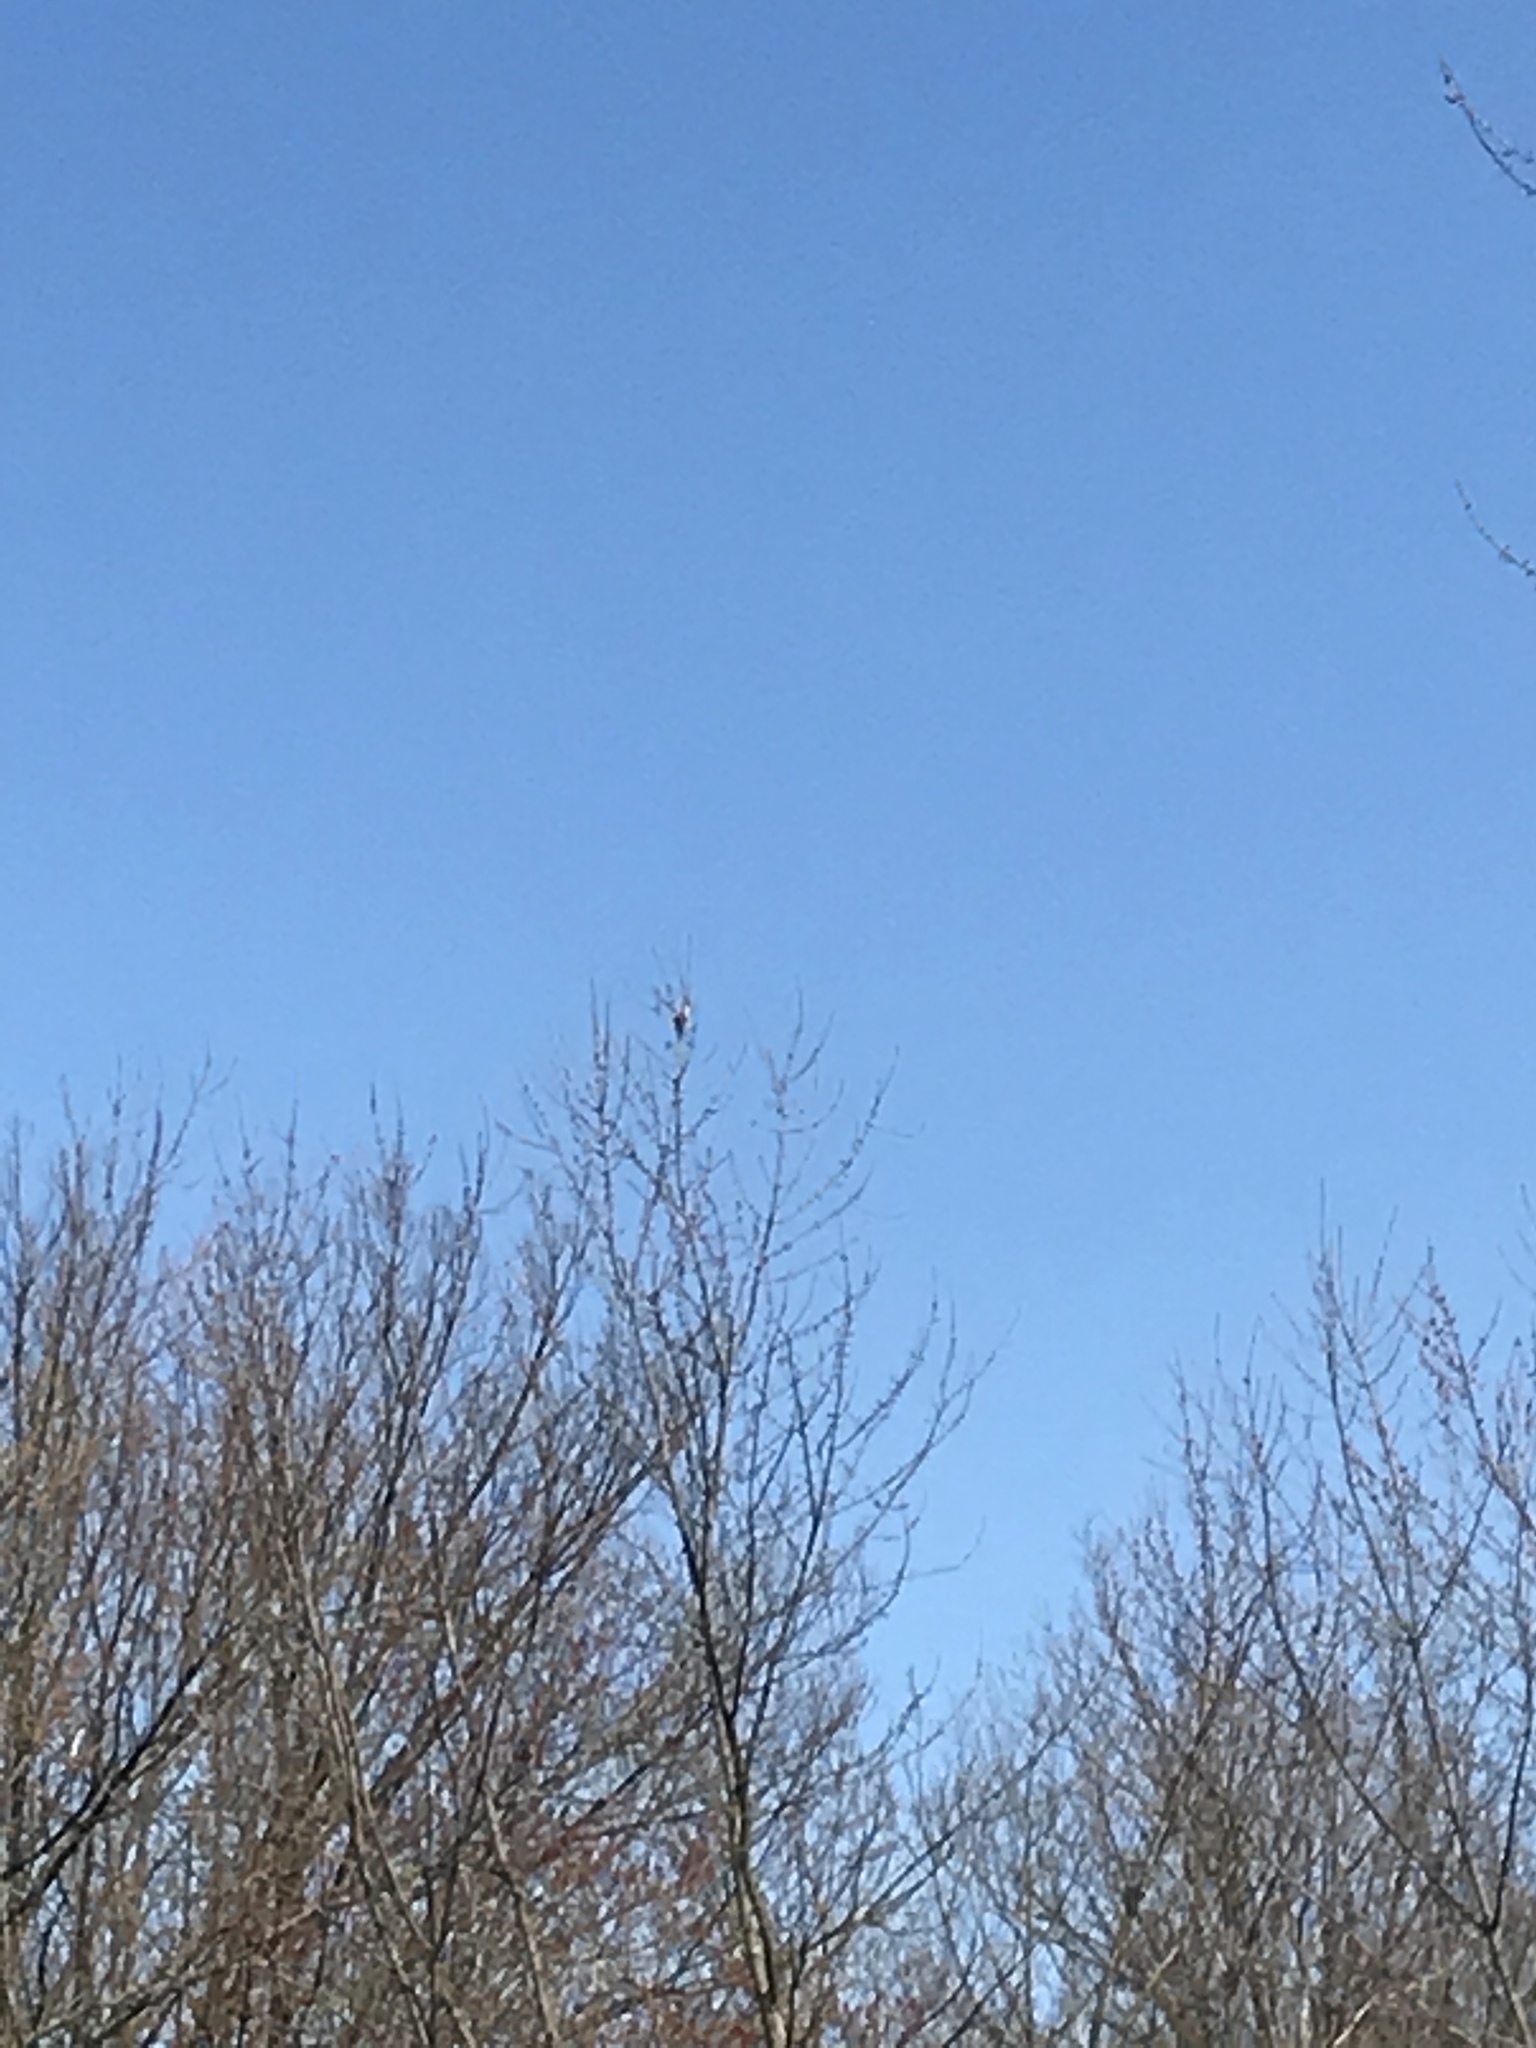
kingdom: Animalia
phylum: Chordata
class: Aves
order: Passeriformes
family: Mimidae
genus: Toxostoma
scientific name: Toxostoma rufum
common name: Brown thrasher
